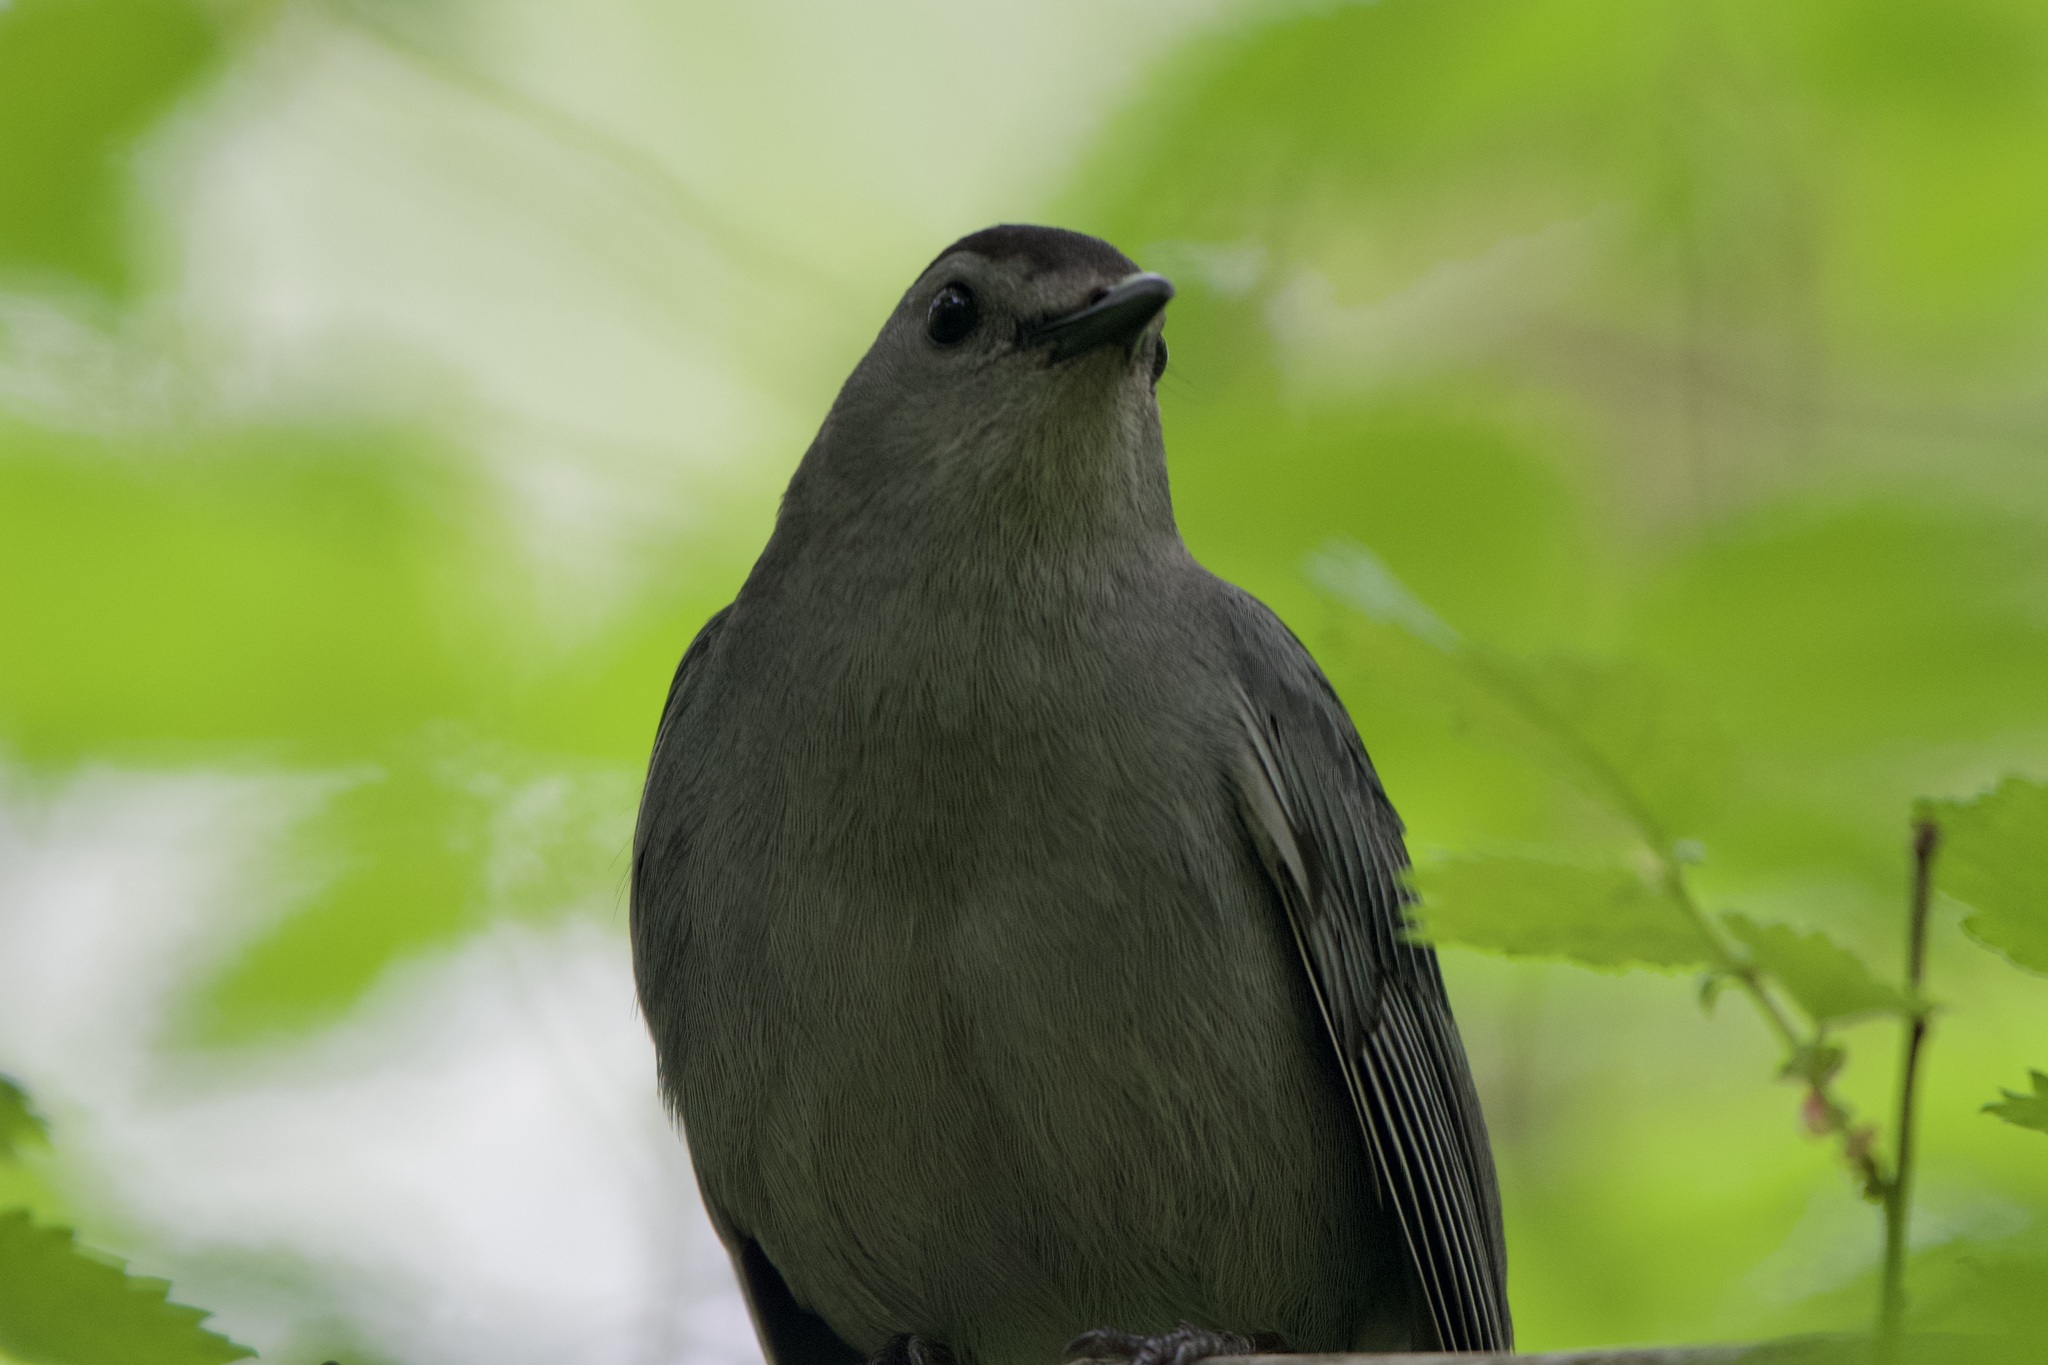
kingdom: Animalia
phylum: Chordata
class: Aves
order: Passeriformes
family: Mimidae
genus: Dumetella
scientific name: Dumetella carolinensis
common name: Gray catbird
